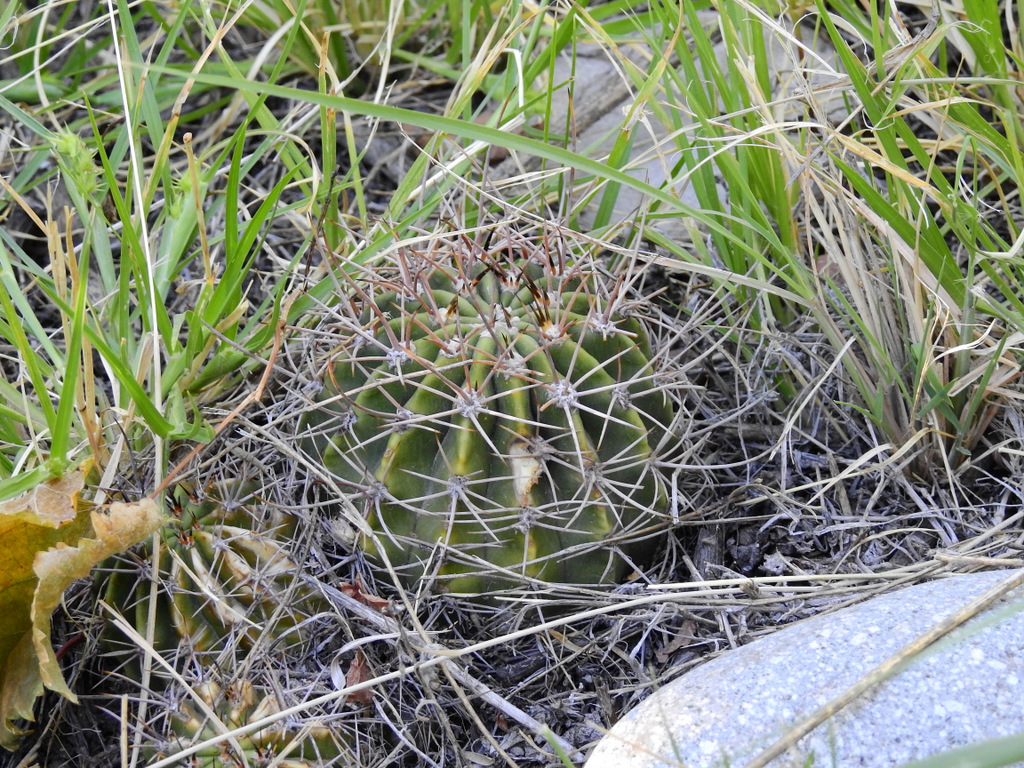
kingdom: Plantae
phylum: Tracheophyta
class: Magnoliopsida
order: Caryophyllales
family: Cactaceae
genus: Acanthocalycium
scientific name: Acanthocalycium leucanthum
